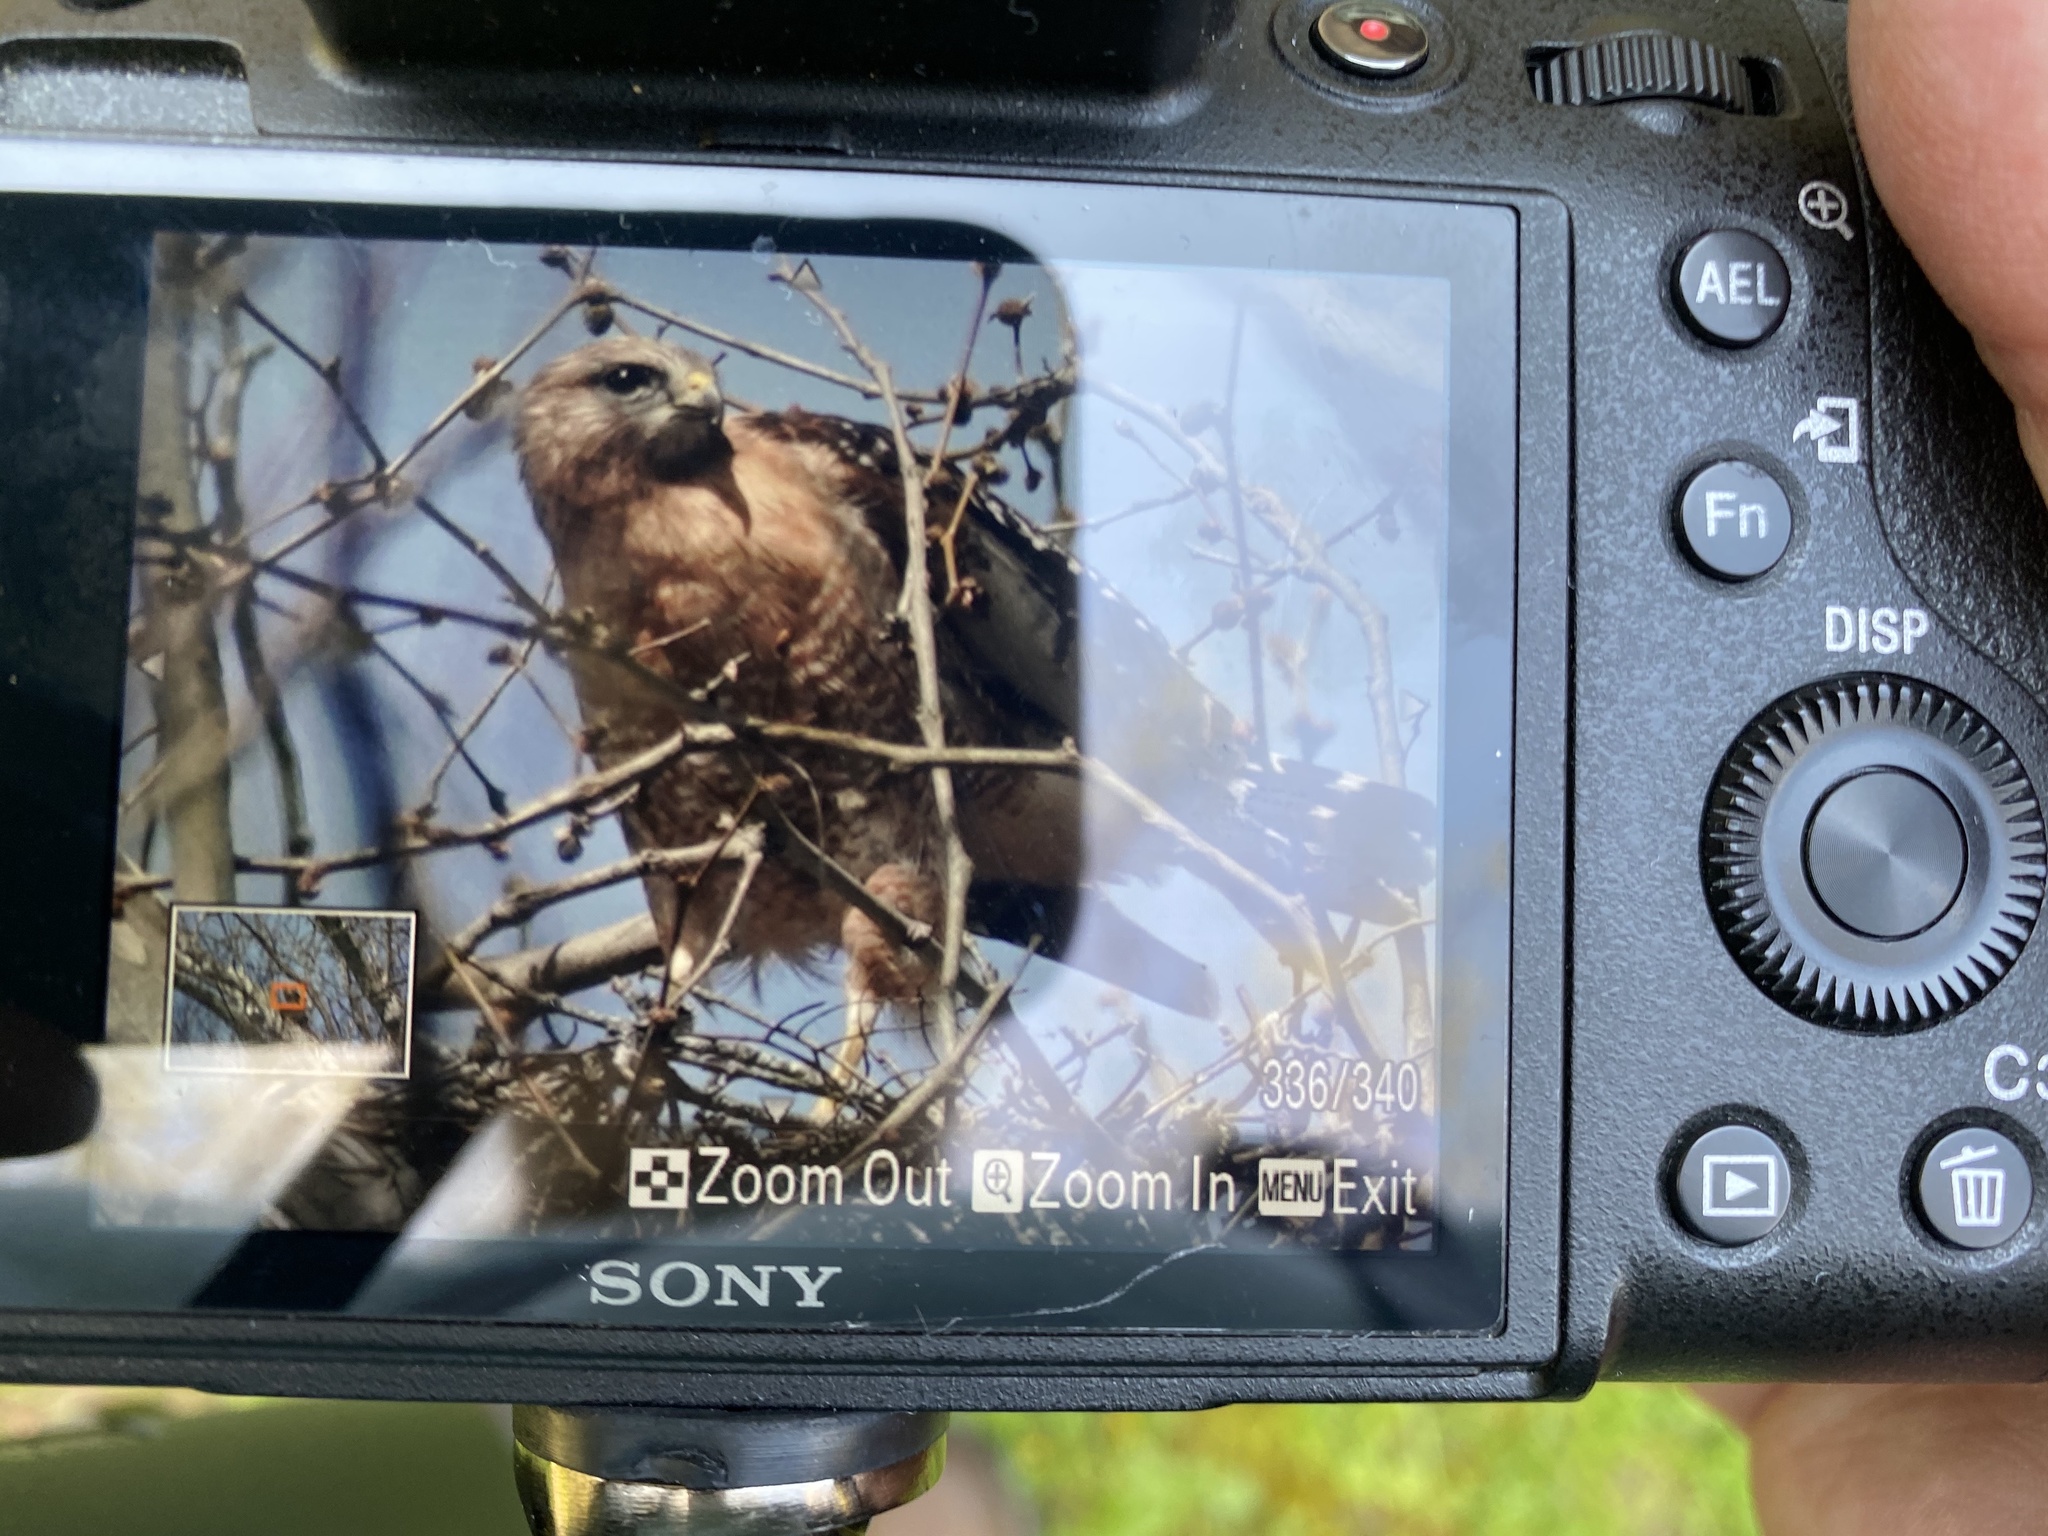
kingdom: Animalia
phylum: Chordata
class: Aves
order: Accipitriformes
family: Accipitridae
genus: Buteo
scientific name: Buteo lineatus
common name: Red-shouldered hawk
